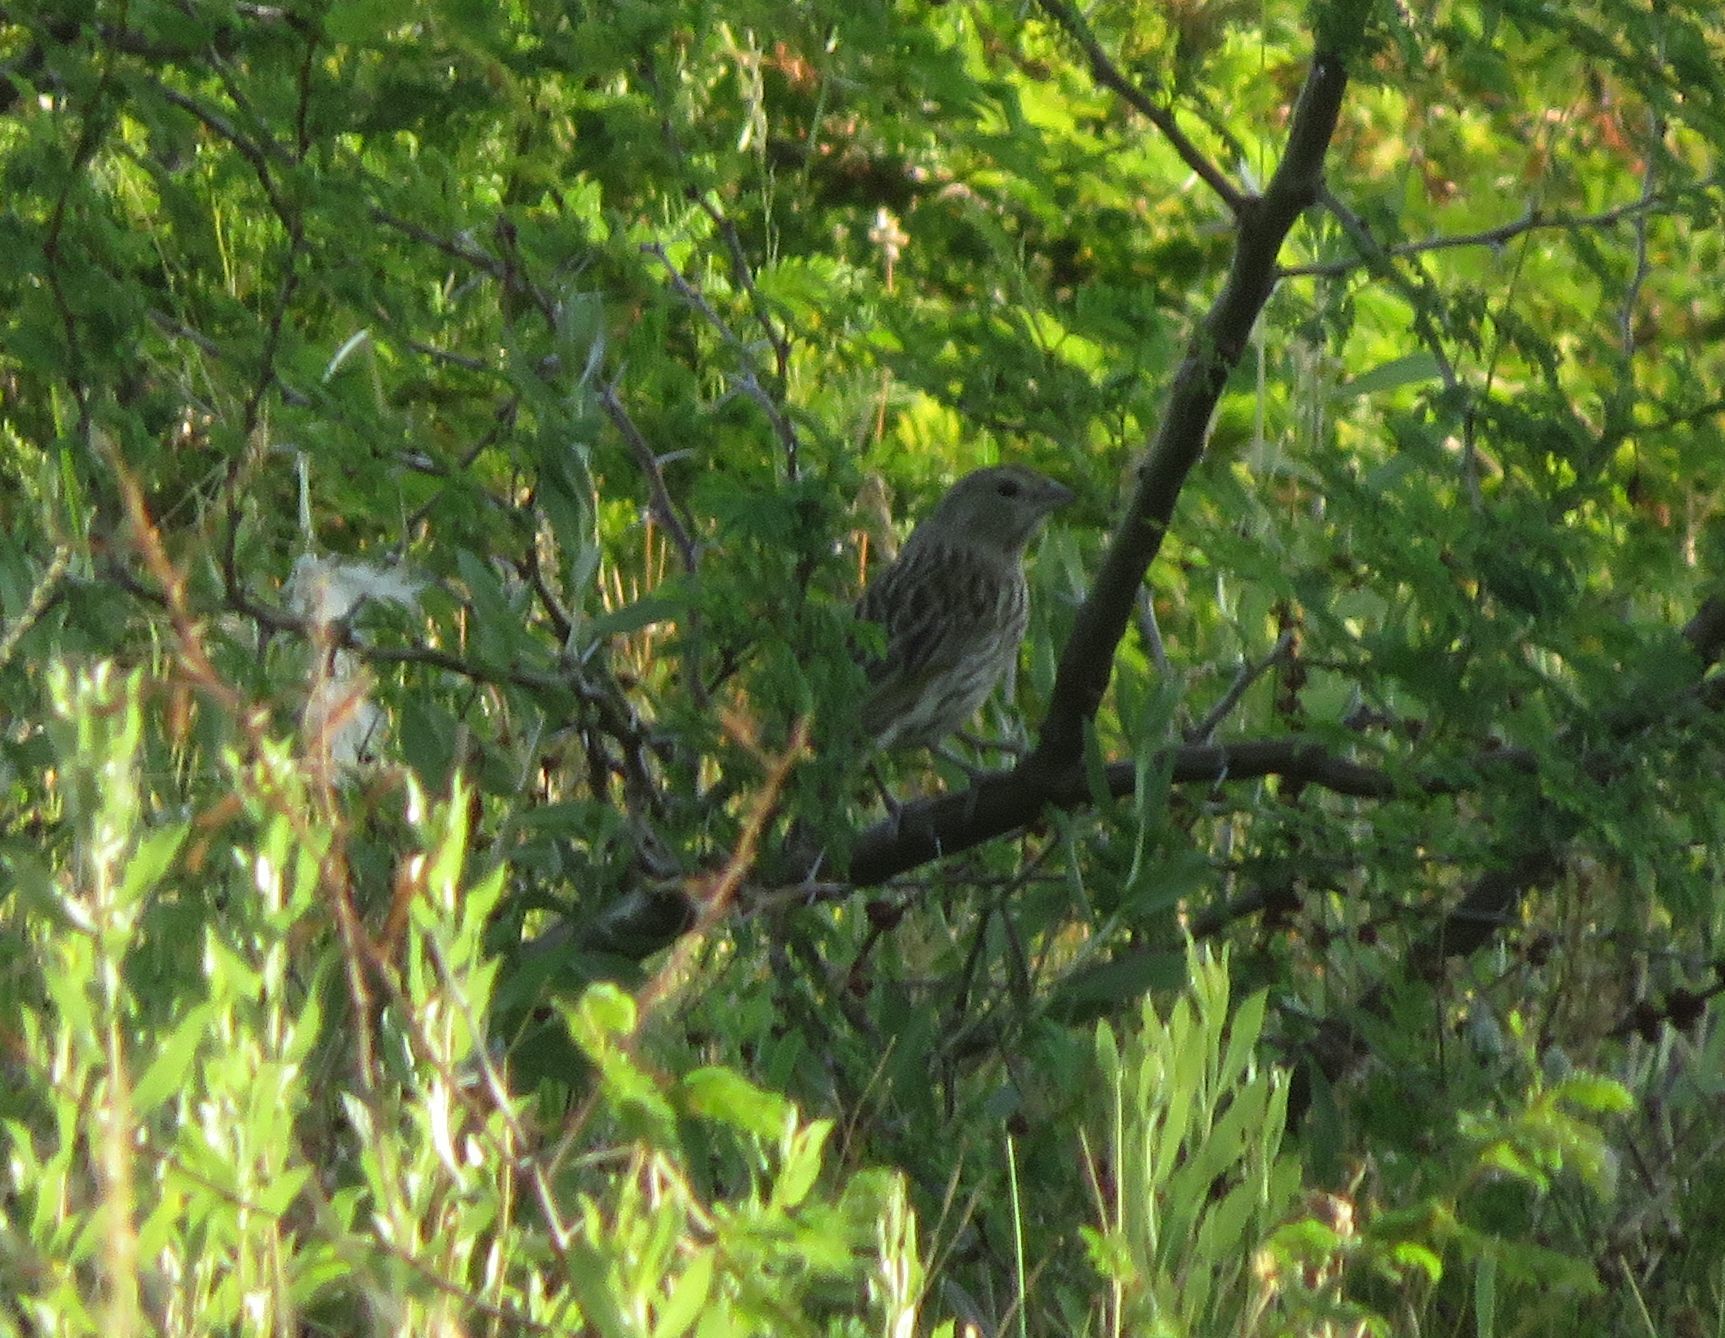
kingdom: Animalia
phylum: Chordata
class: Aves
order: Passeriformes
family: Thraupidae
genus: Sicalis
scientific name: Sicalis flaveola
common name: Saffron finch
